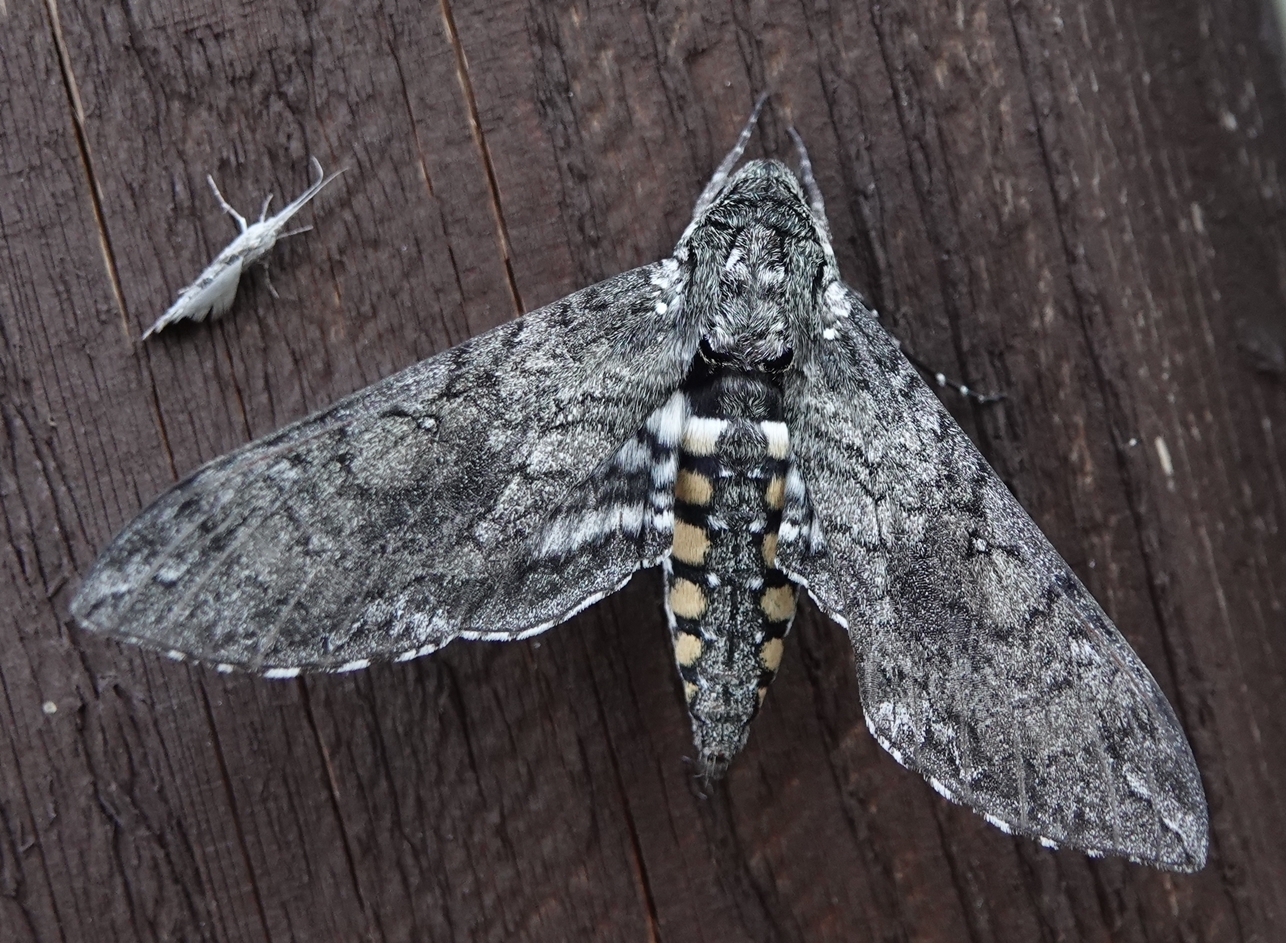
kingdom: Animalia
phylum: Arthropoda
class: Insecta
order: Lepidoptera
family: Sphingidae
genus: Manduca
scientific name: Manduca sexta
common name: Carolina sphinx
